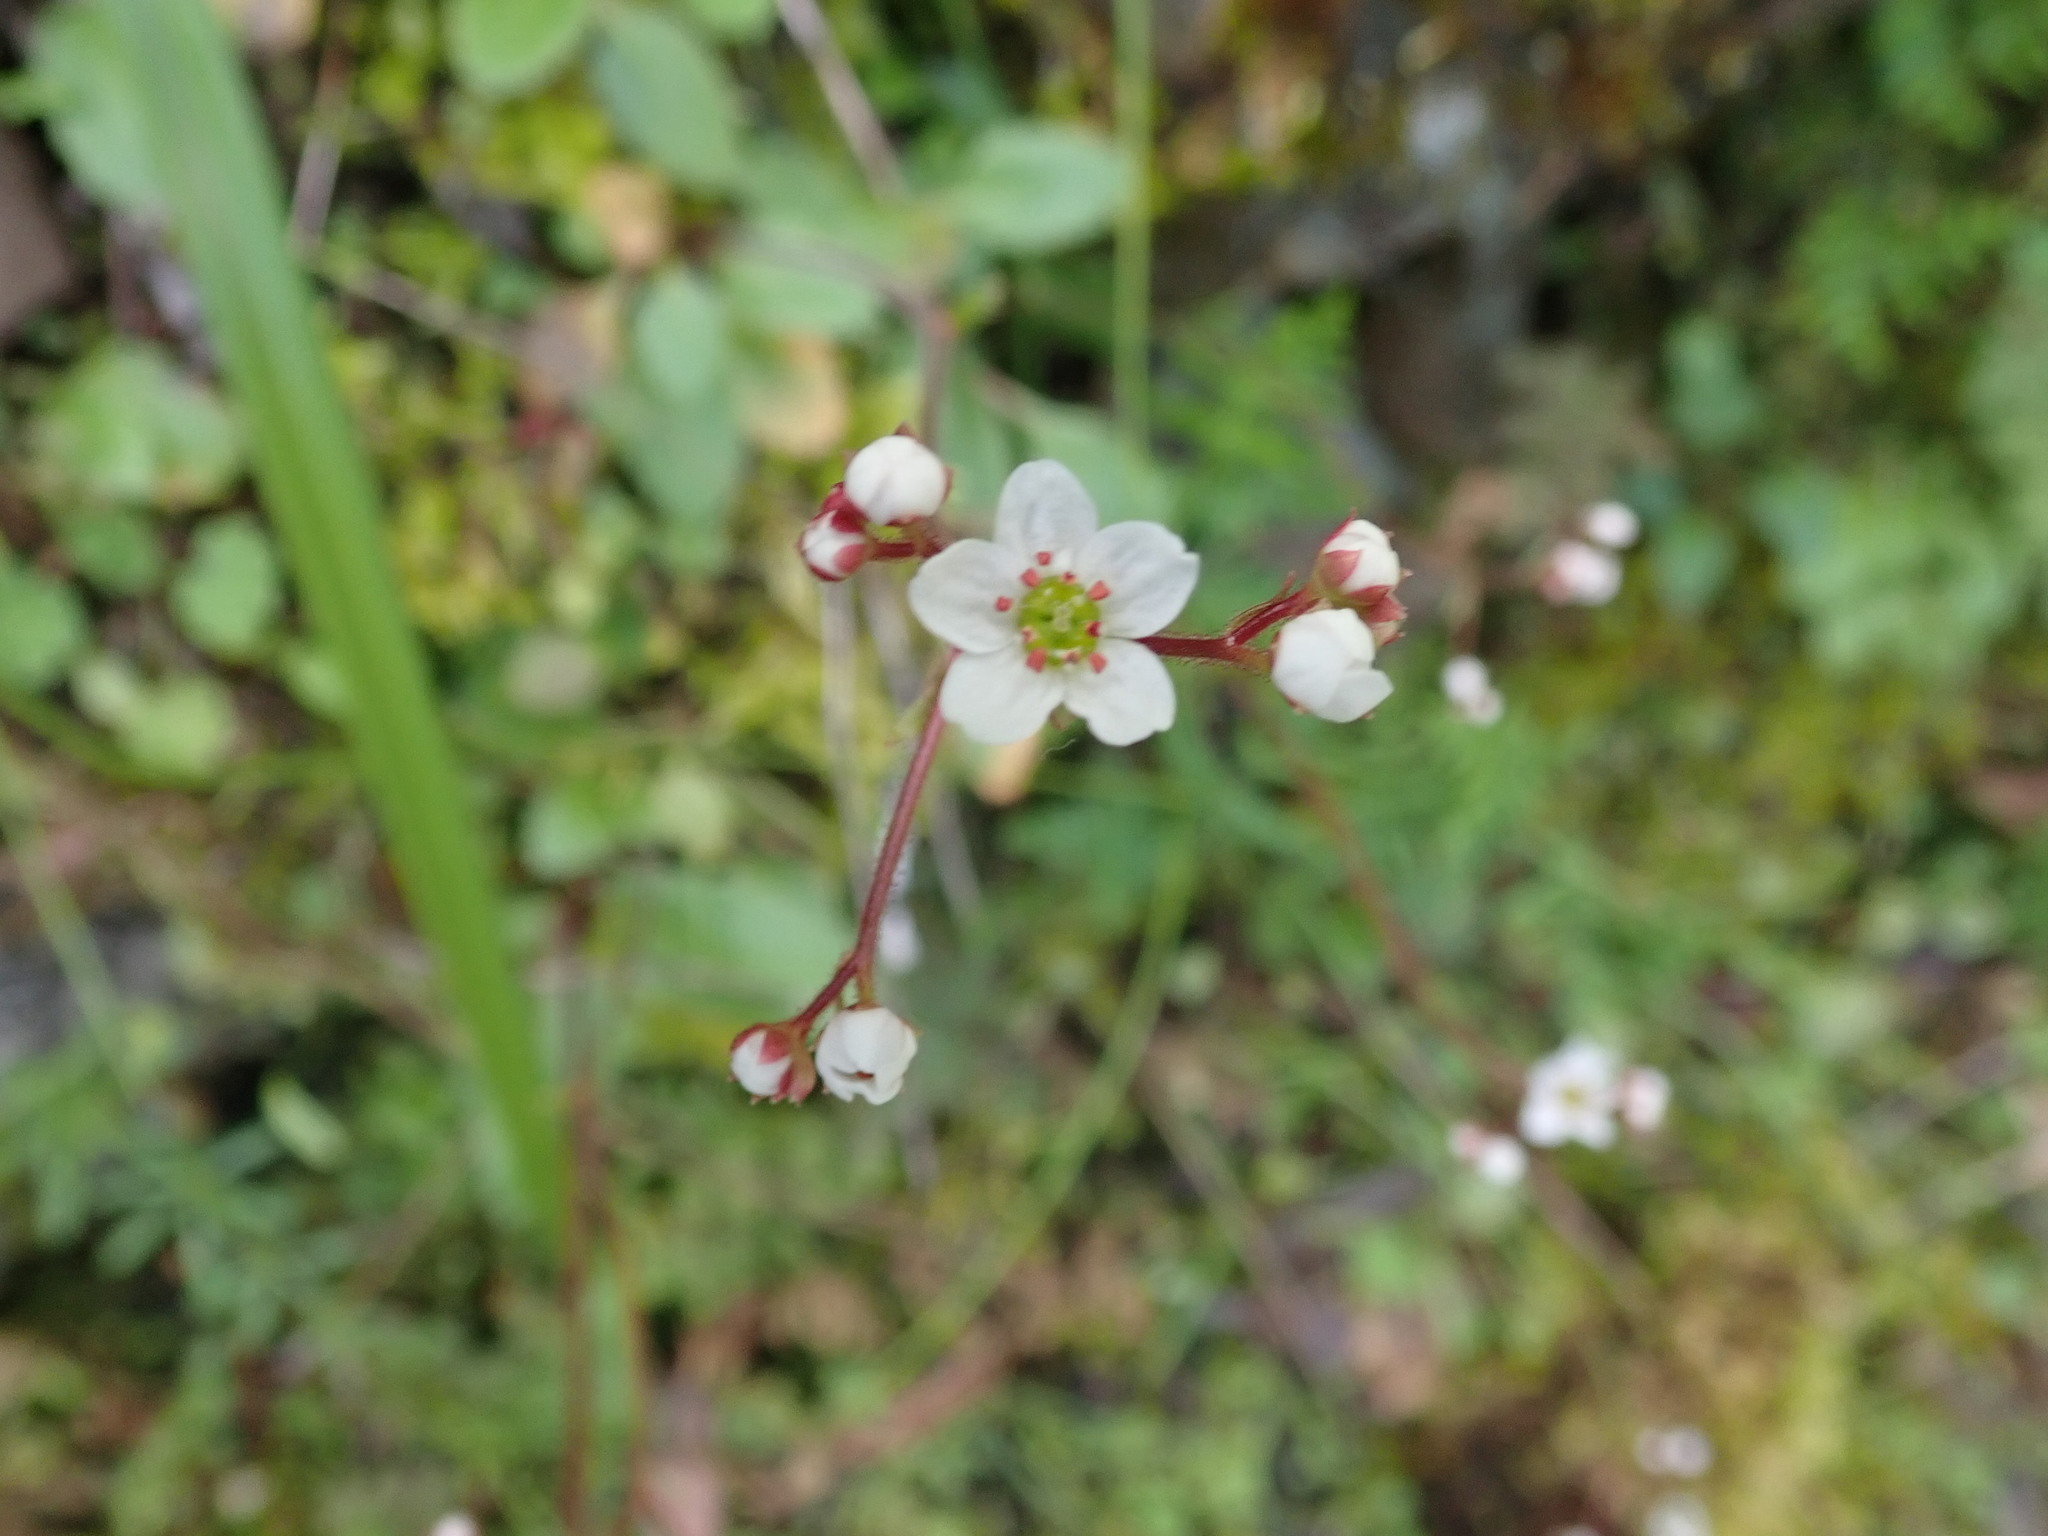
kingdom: Plantae
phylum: Tracheophyta
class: Magnoliopsida
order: Saxifragales
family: Saxifragaceae
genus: Micranthes
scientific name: Micranthes californica
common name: California saxifrage
